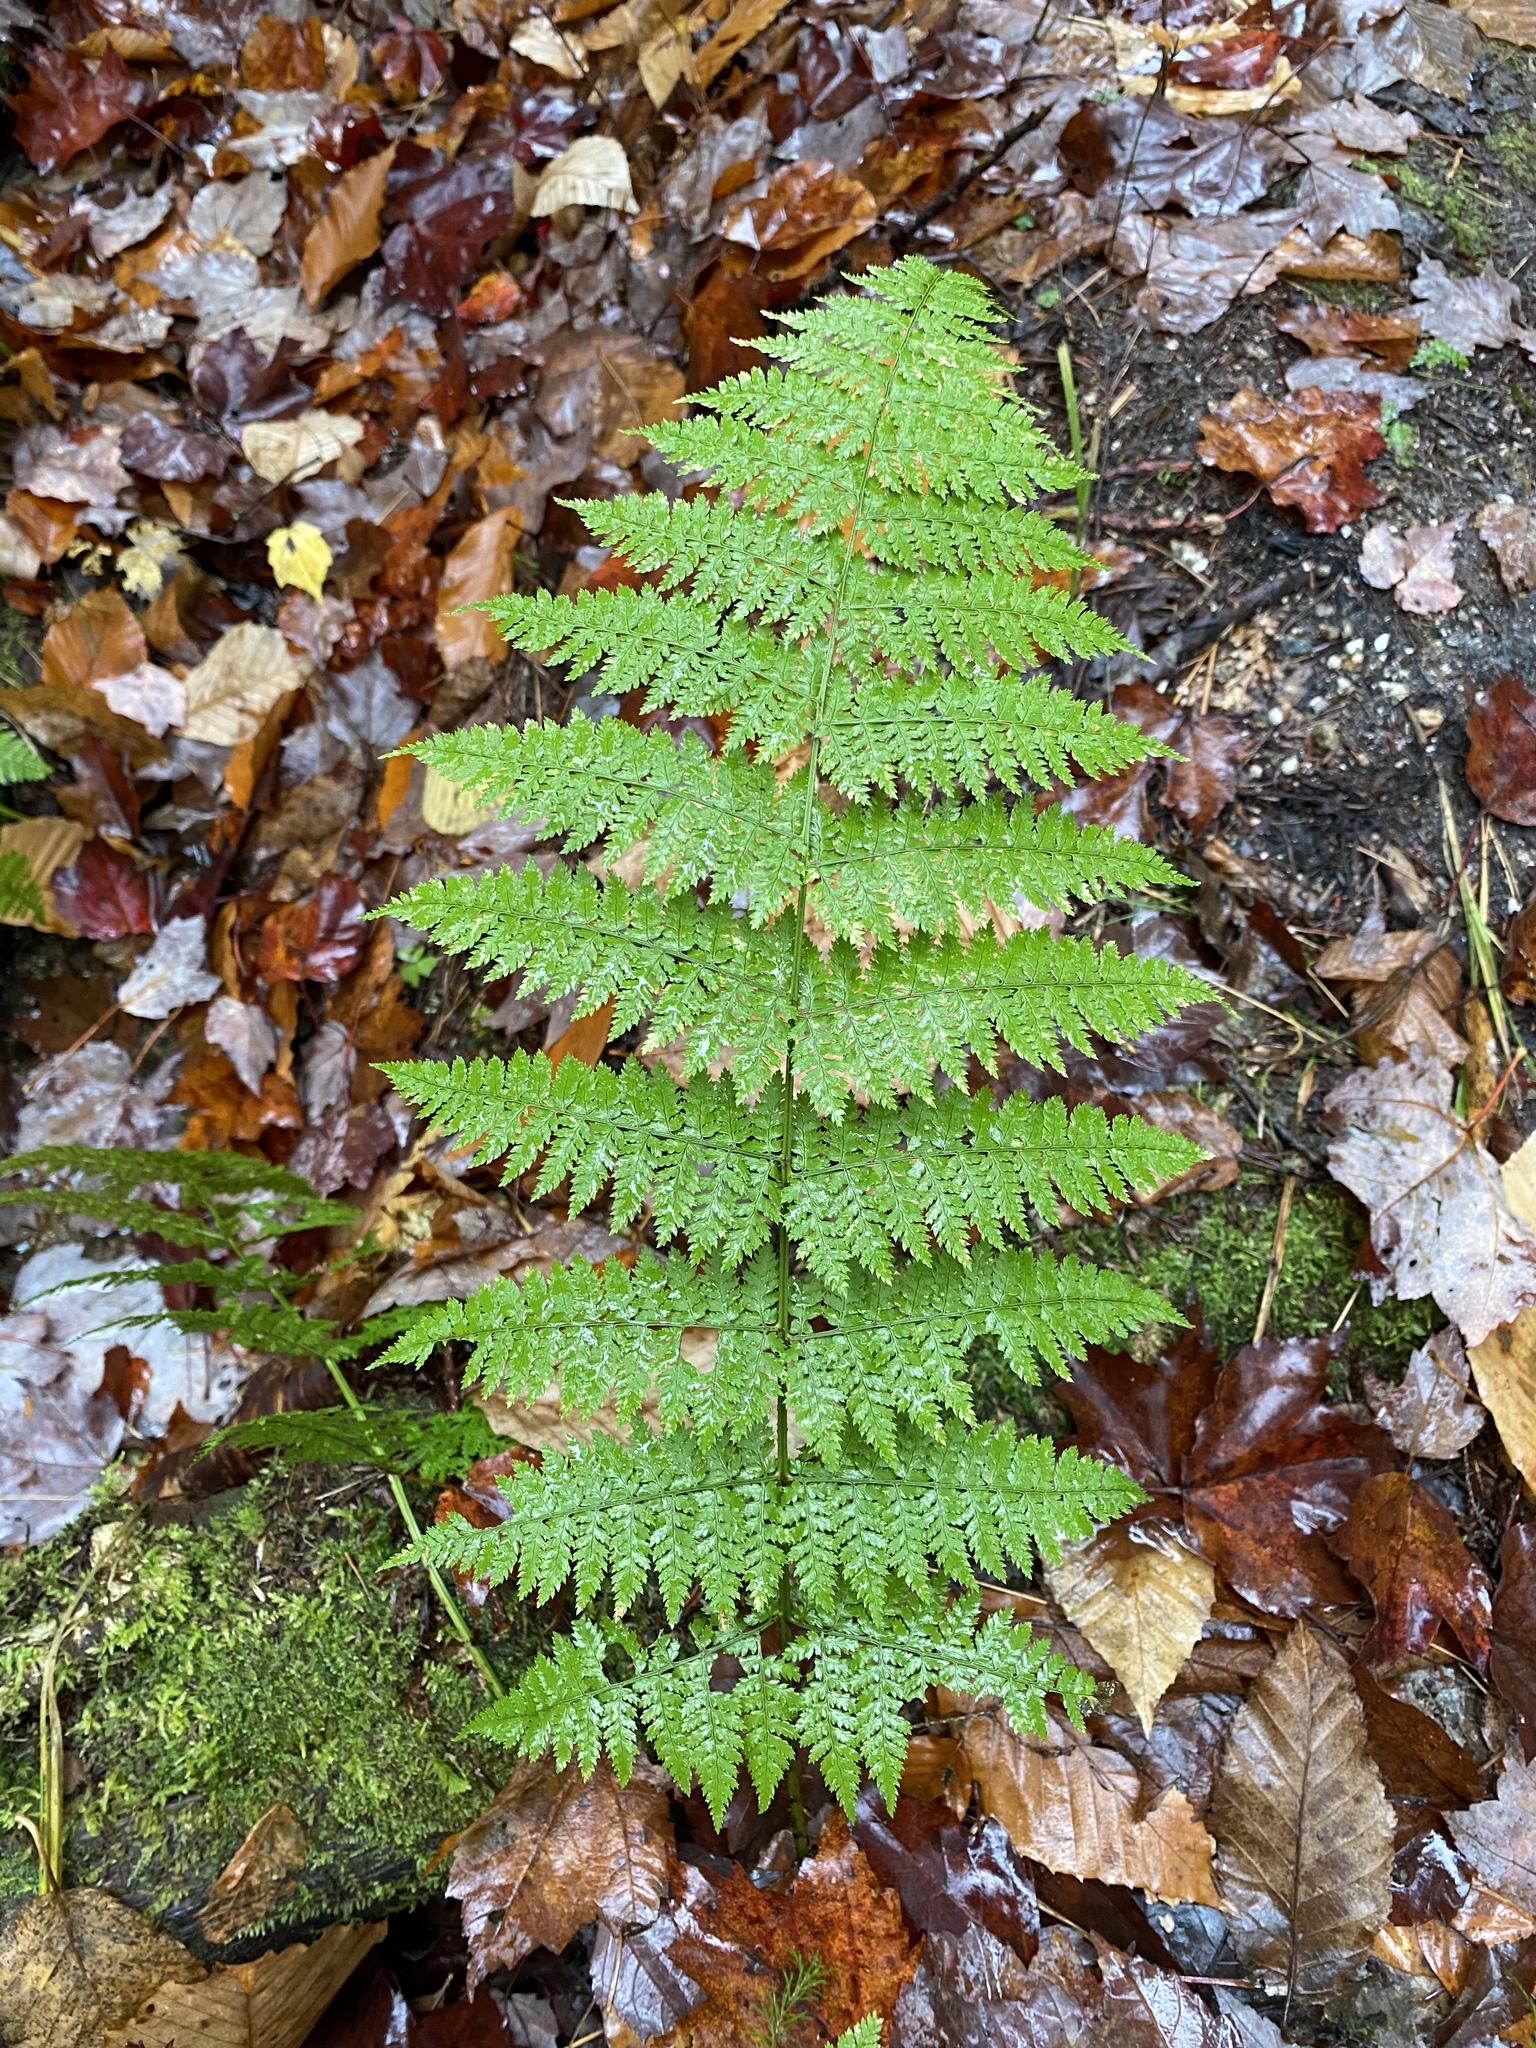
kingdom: Plantae
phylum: Tracheophyta
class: Polypodiopsida
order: Polypodiales
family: Dryopteridaceae
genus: Dryopteris
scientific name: Dryopteris campyloptera
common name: Mountain wood fern
